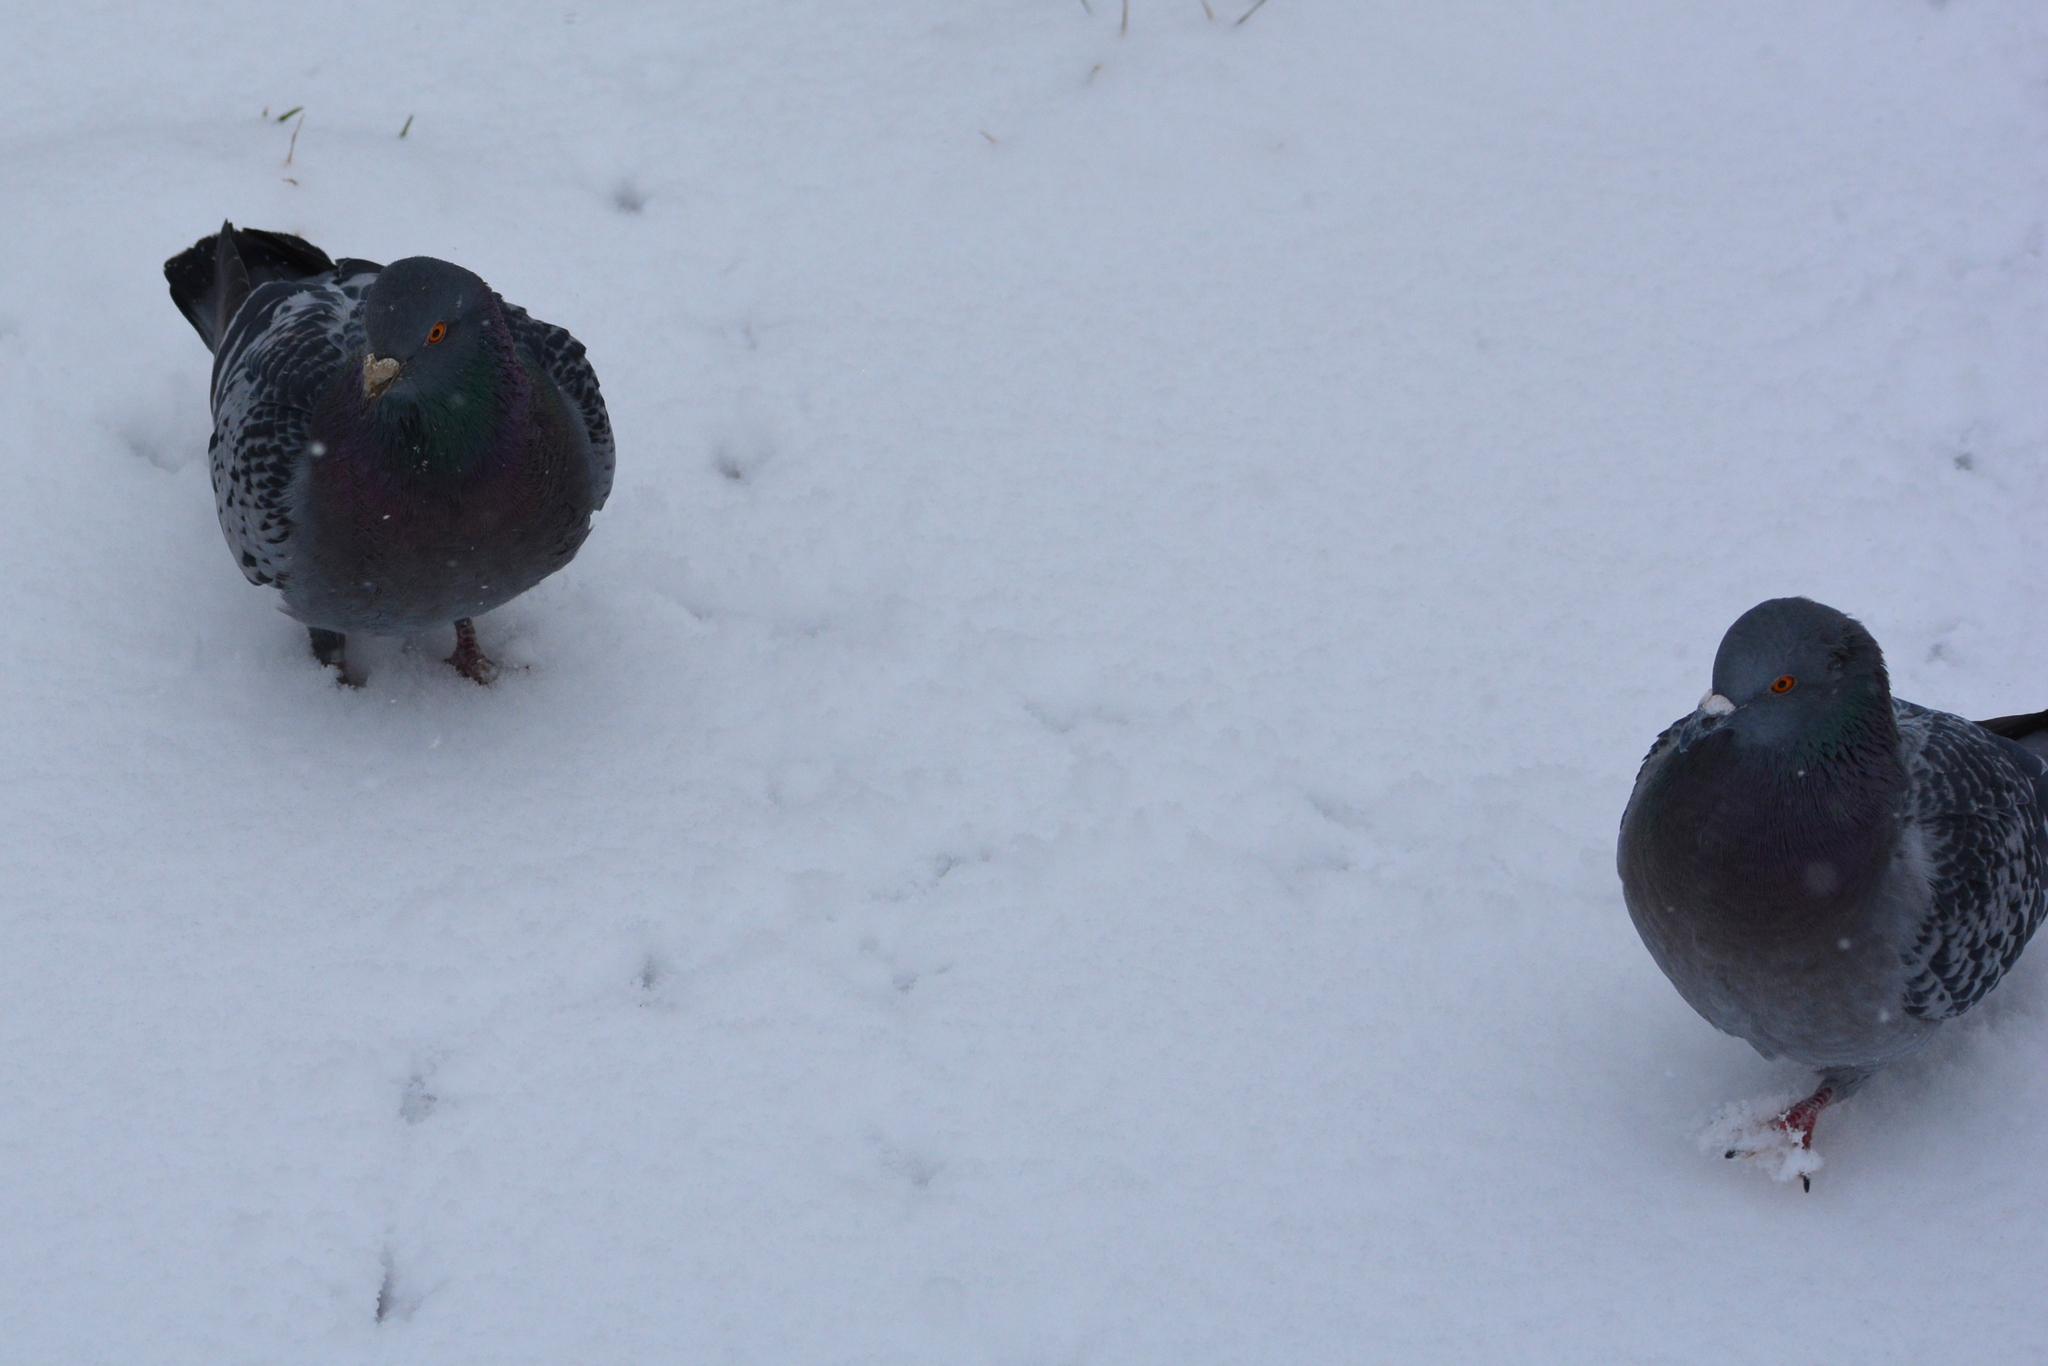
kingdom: Animalia
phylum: Chordata
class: Aves
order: Columbiformes
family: Columbidae
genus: Columba
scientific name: Columba livia
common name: Rock pigeon
